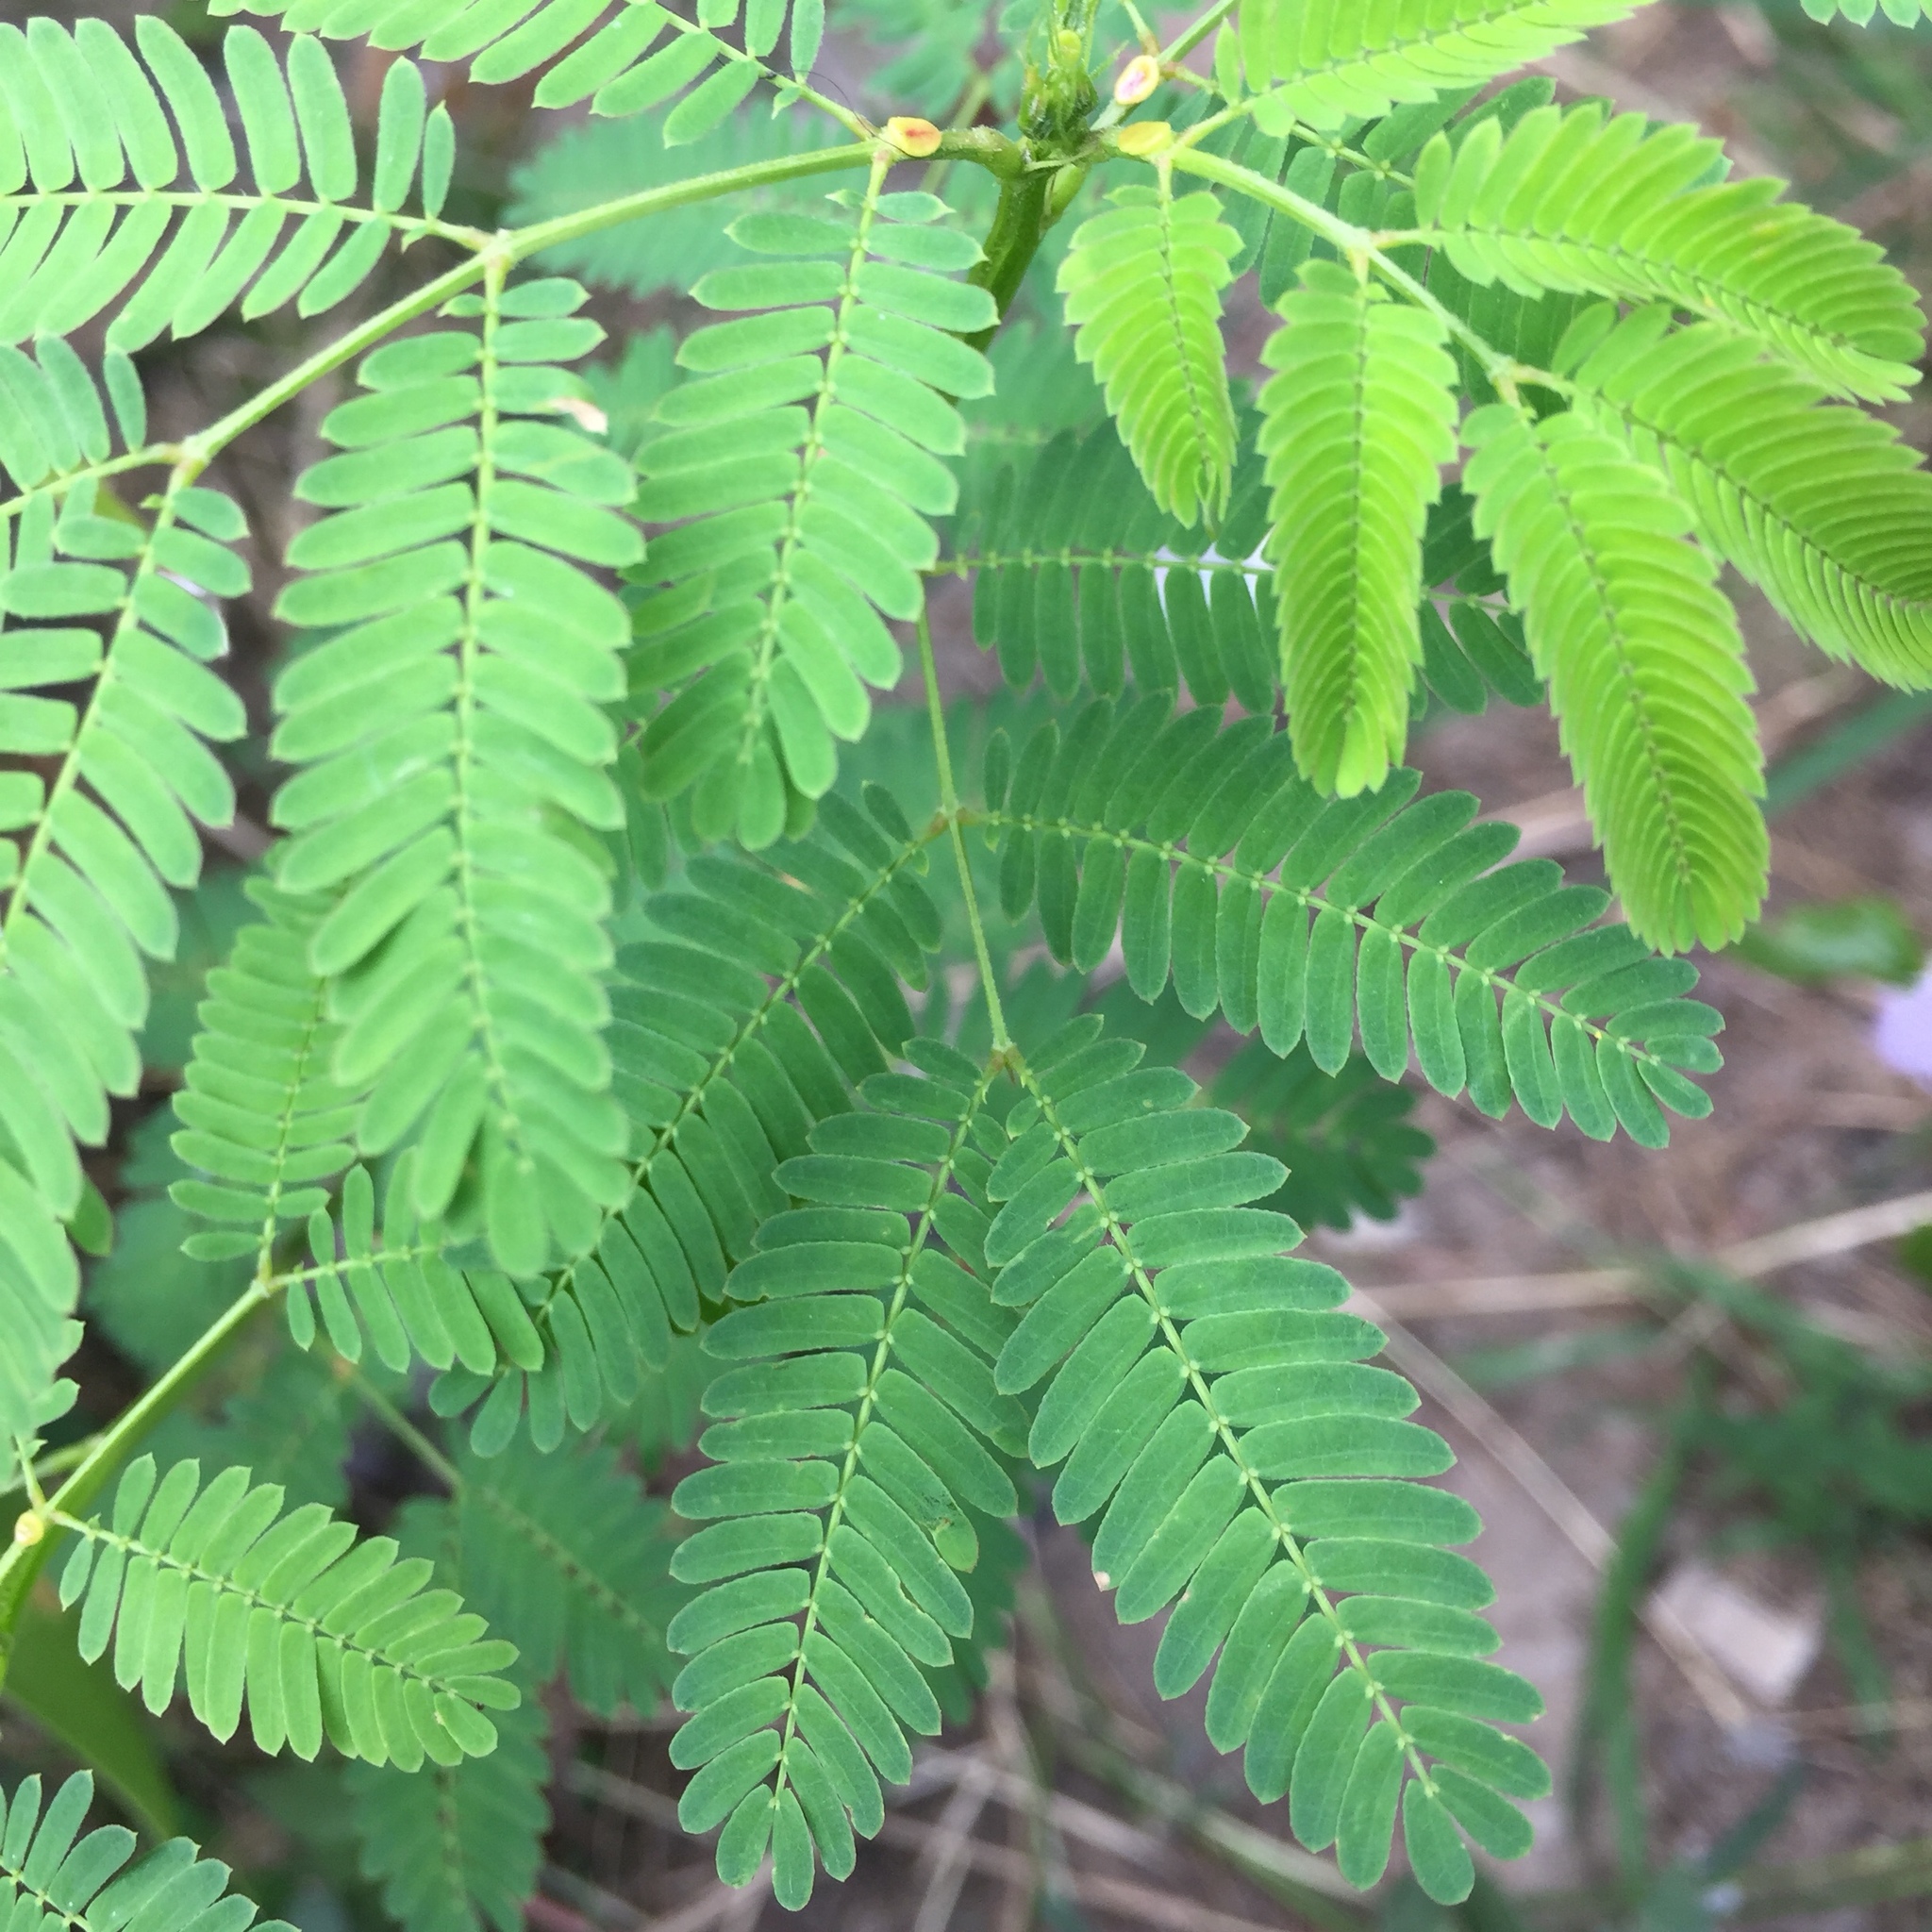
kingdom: Plantae
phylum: Tracheophyta
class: Magnoliopsida
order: Fabales
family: Fabaceae
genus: Leucaena
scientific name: Leucaena leucocephala
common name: White leadtree
